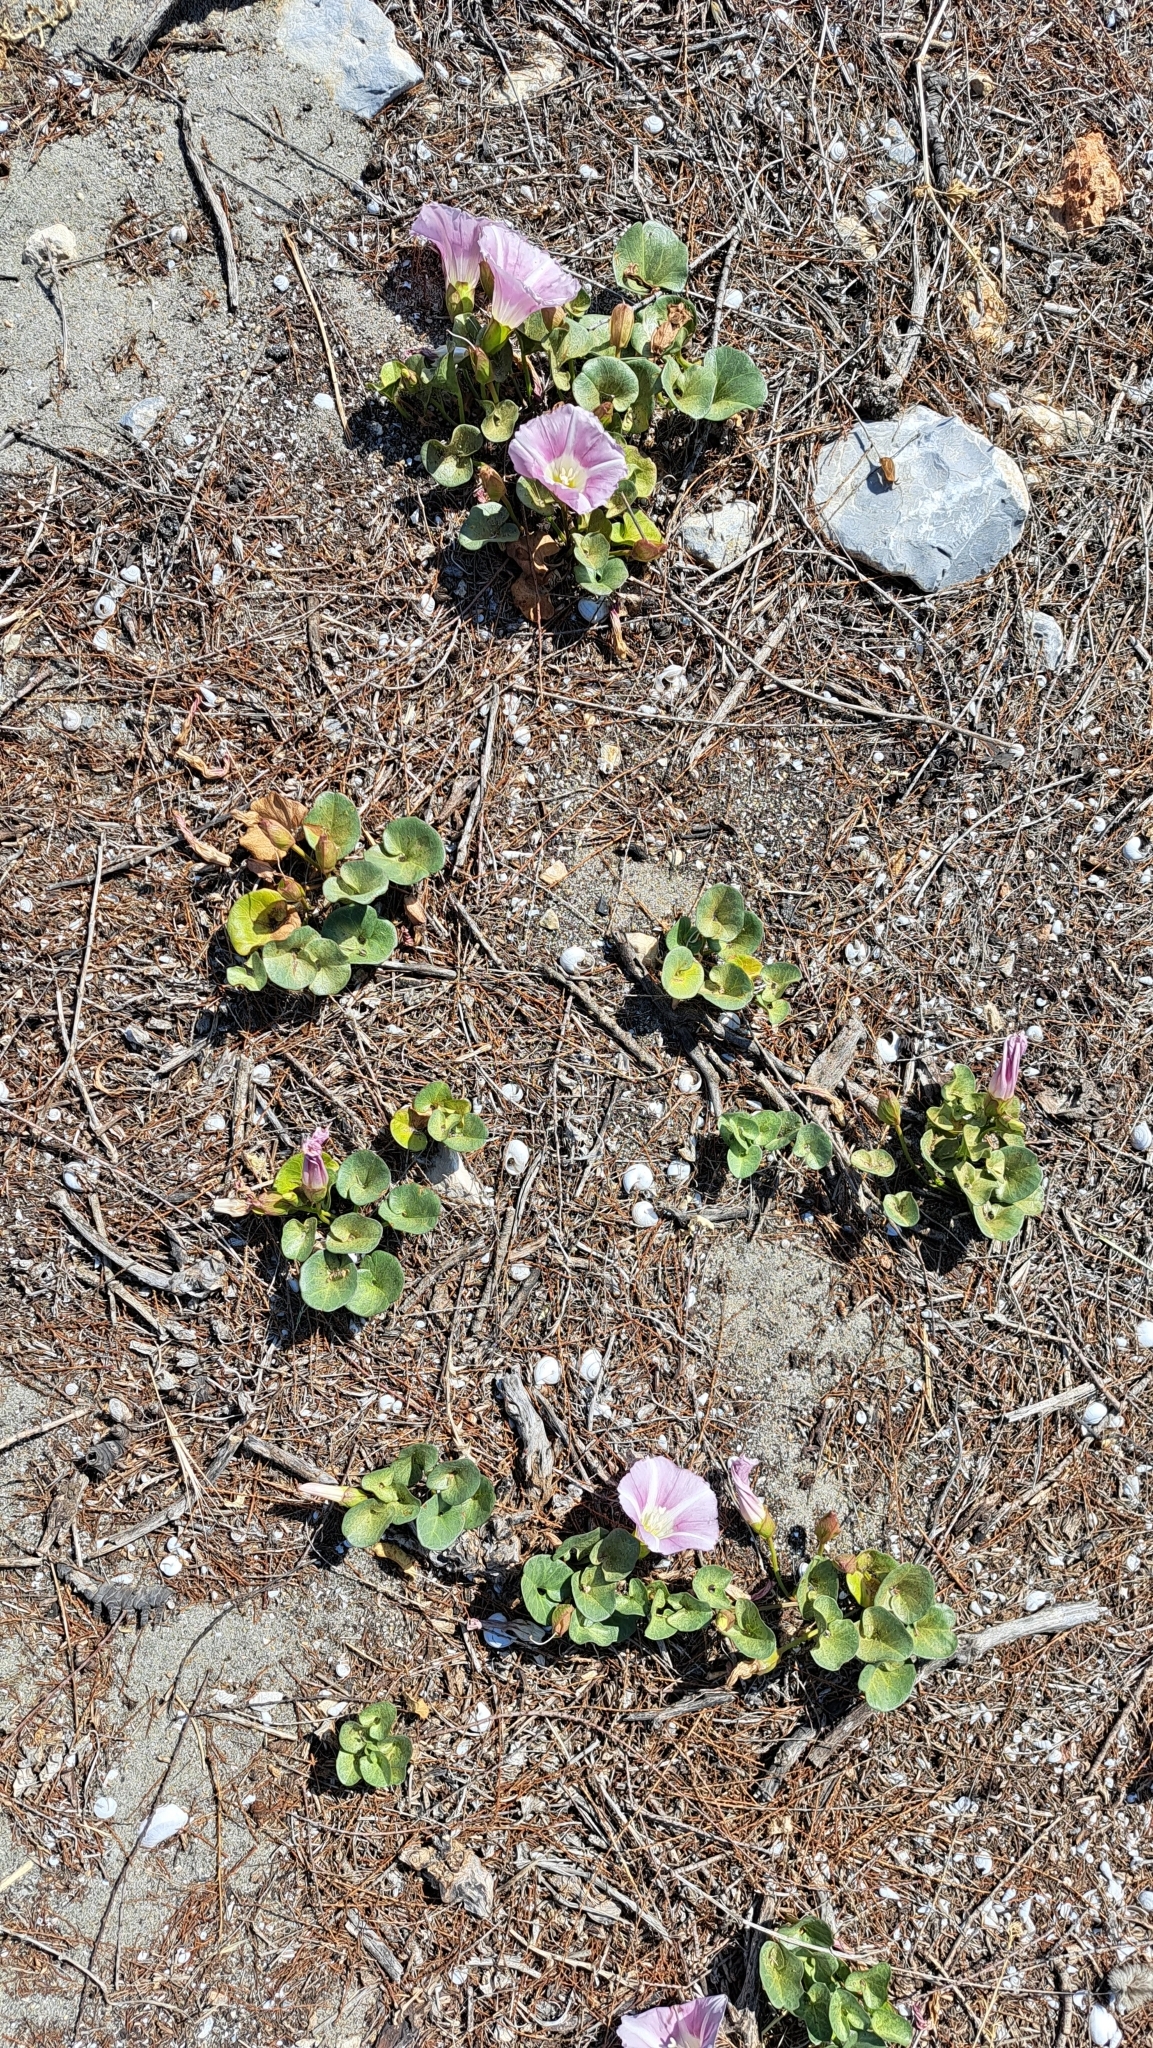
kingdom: Plantae
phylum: Tracheophyta
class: Magnoliopsida
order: Solanales
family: Convolvulaceae
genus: Calystegia
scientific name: Calystegia soldanella
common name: Sea bindweed
